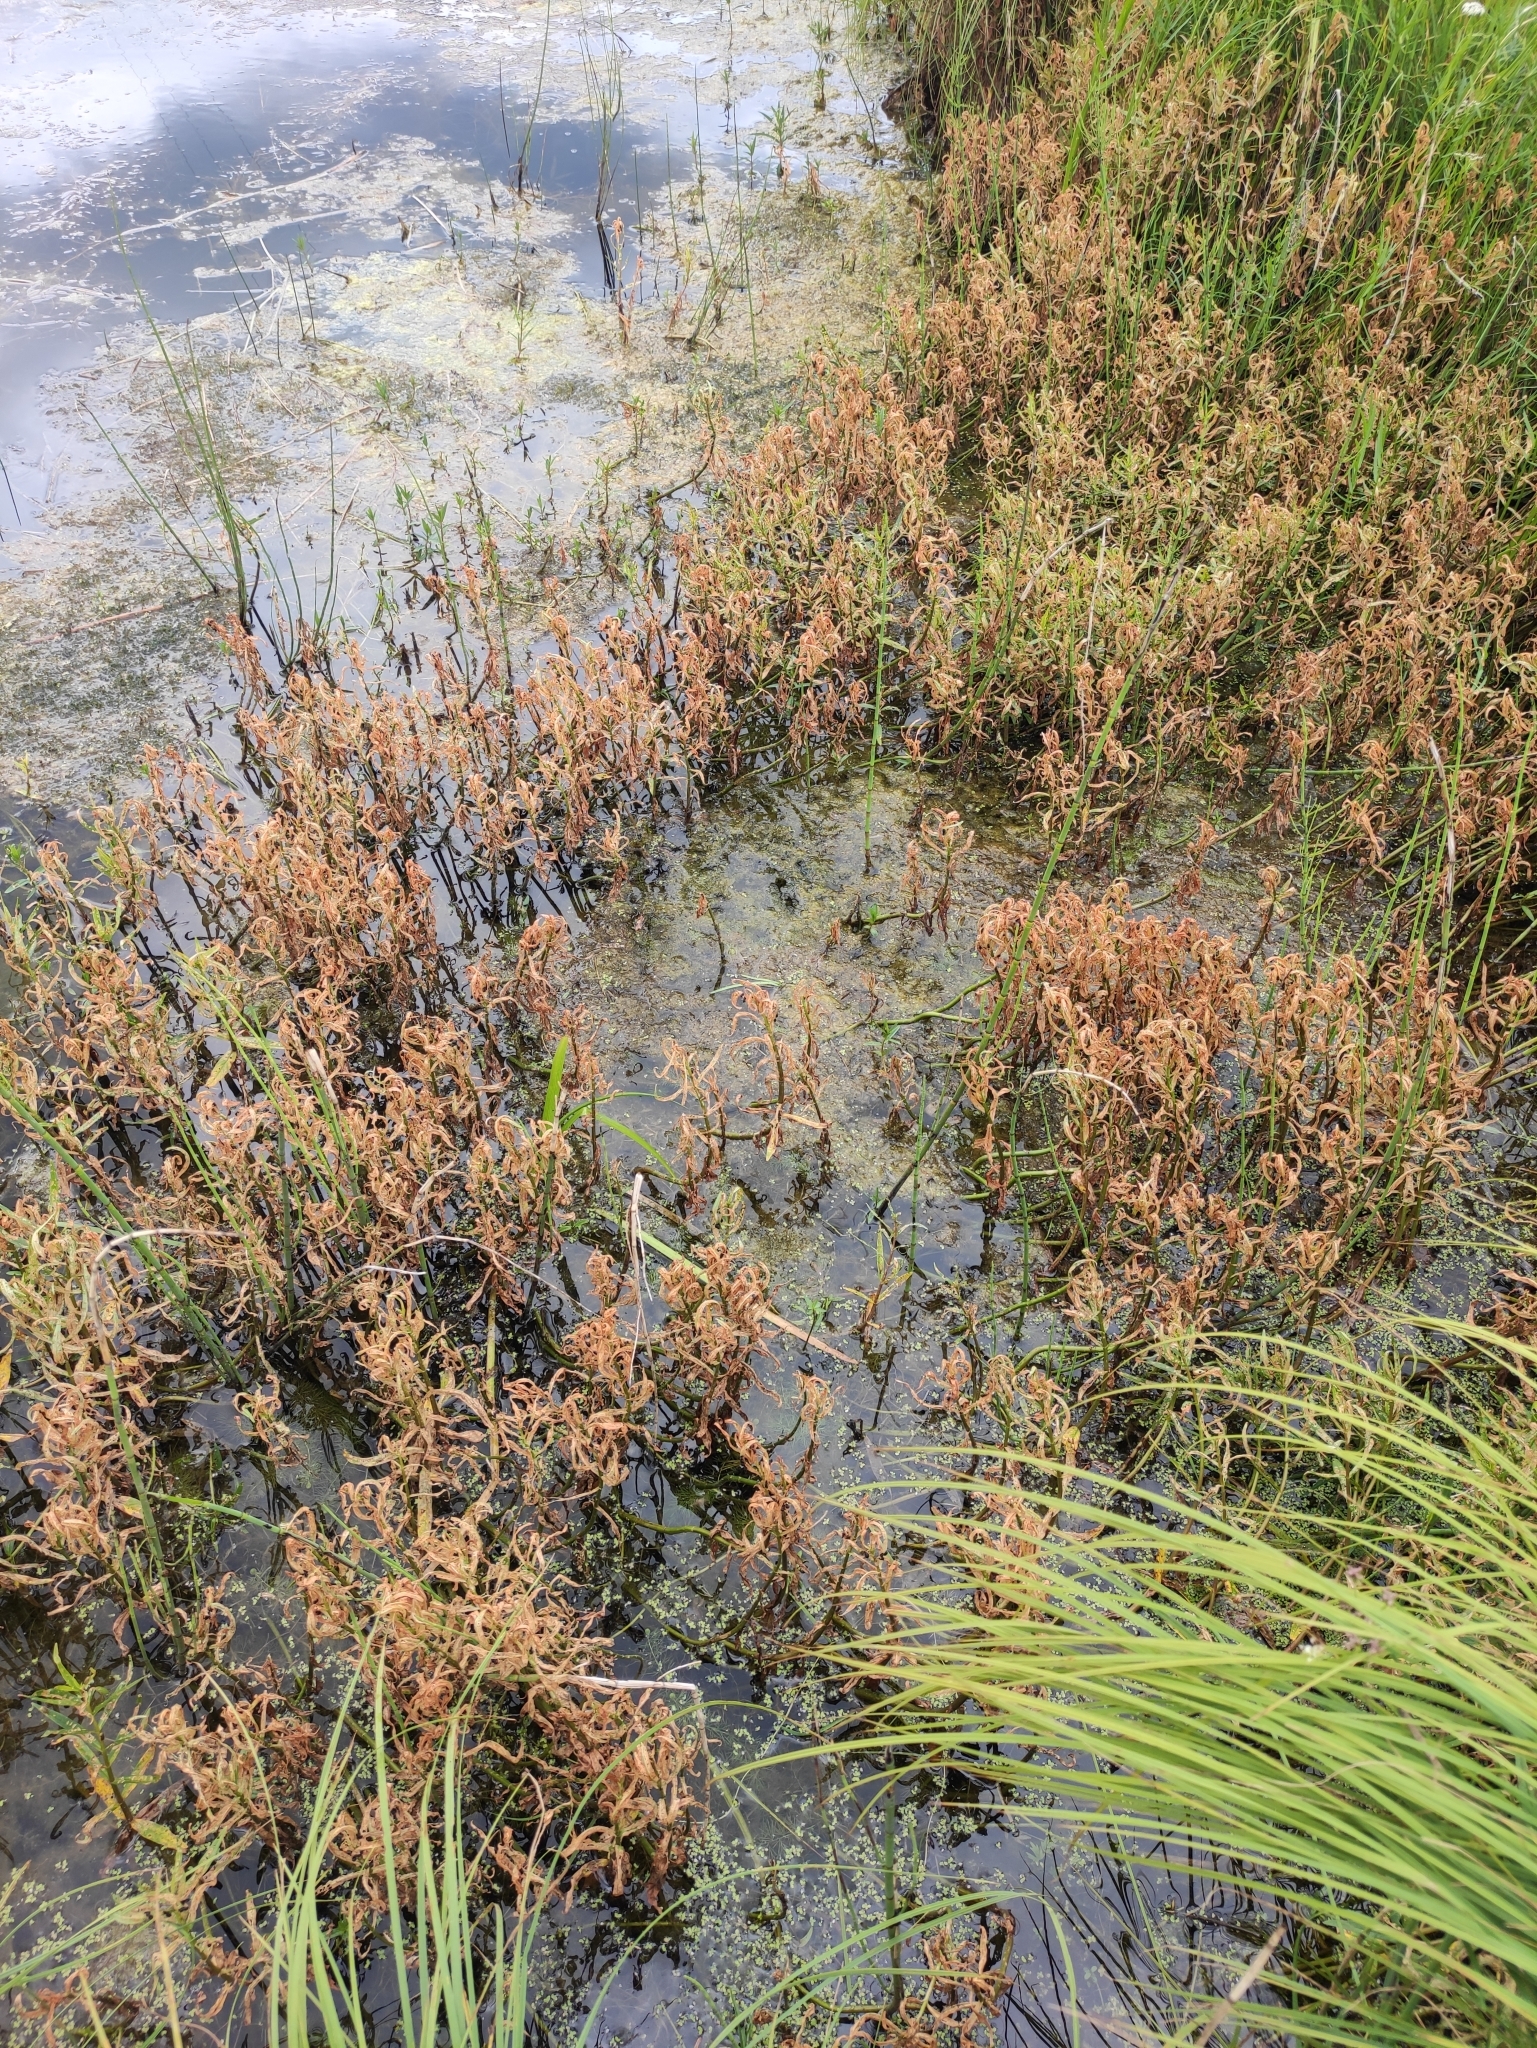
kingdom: Plantae
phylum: Tracheophyta
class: Magnoliopsida
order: Ericales
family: Primulaceae
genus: Lysimachia
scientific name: Lysimachia thyrsiflora
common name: Tufted loosestrife
